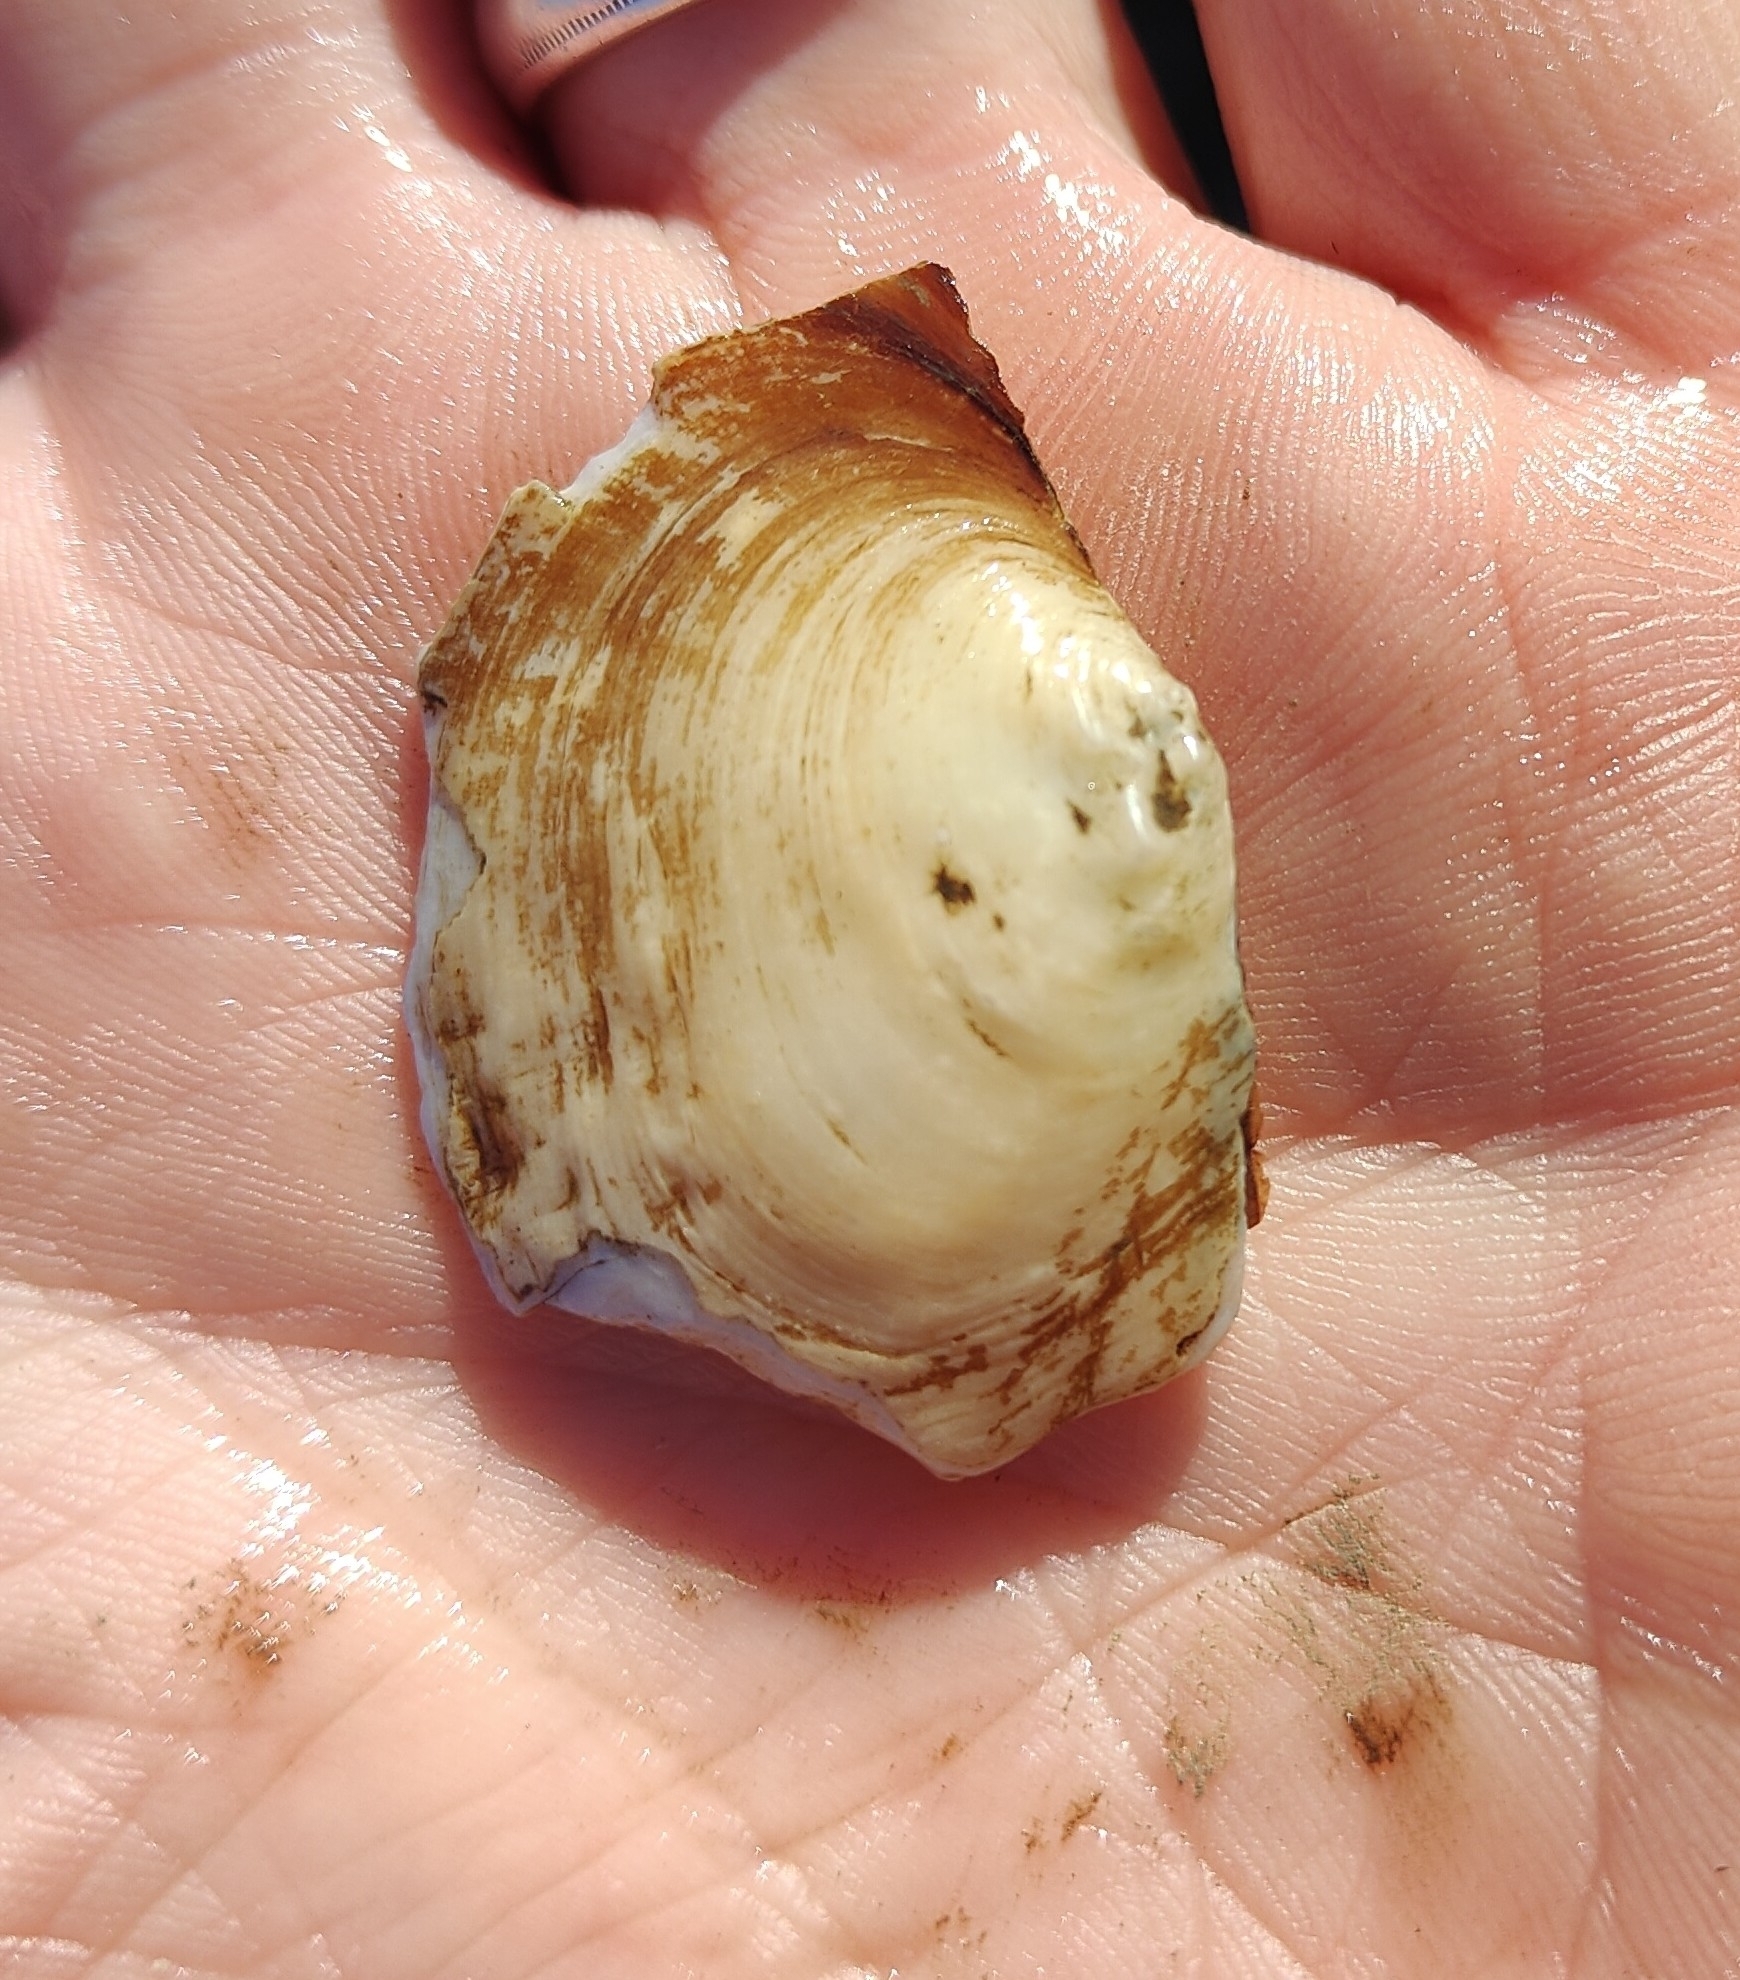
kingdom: Animalia
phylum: Mollusca
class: Bivalvia
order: Unionida
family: Unionidae
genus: Lasmigona
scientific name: Lasmigona complanata
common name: White heelsplitter
